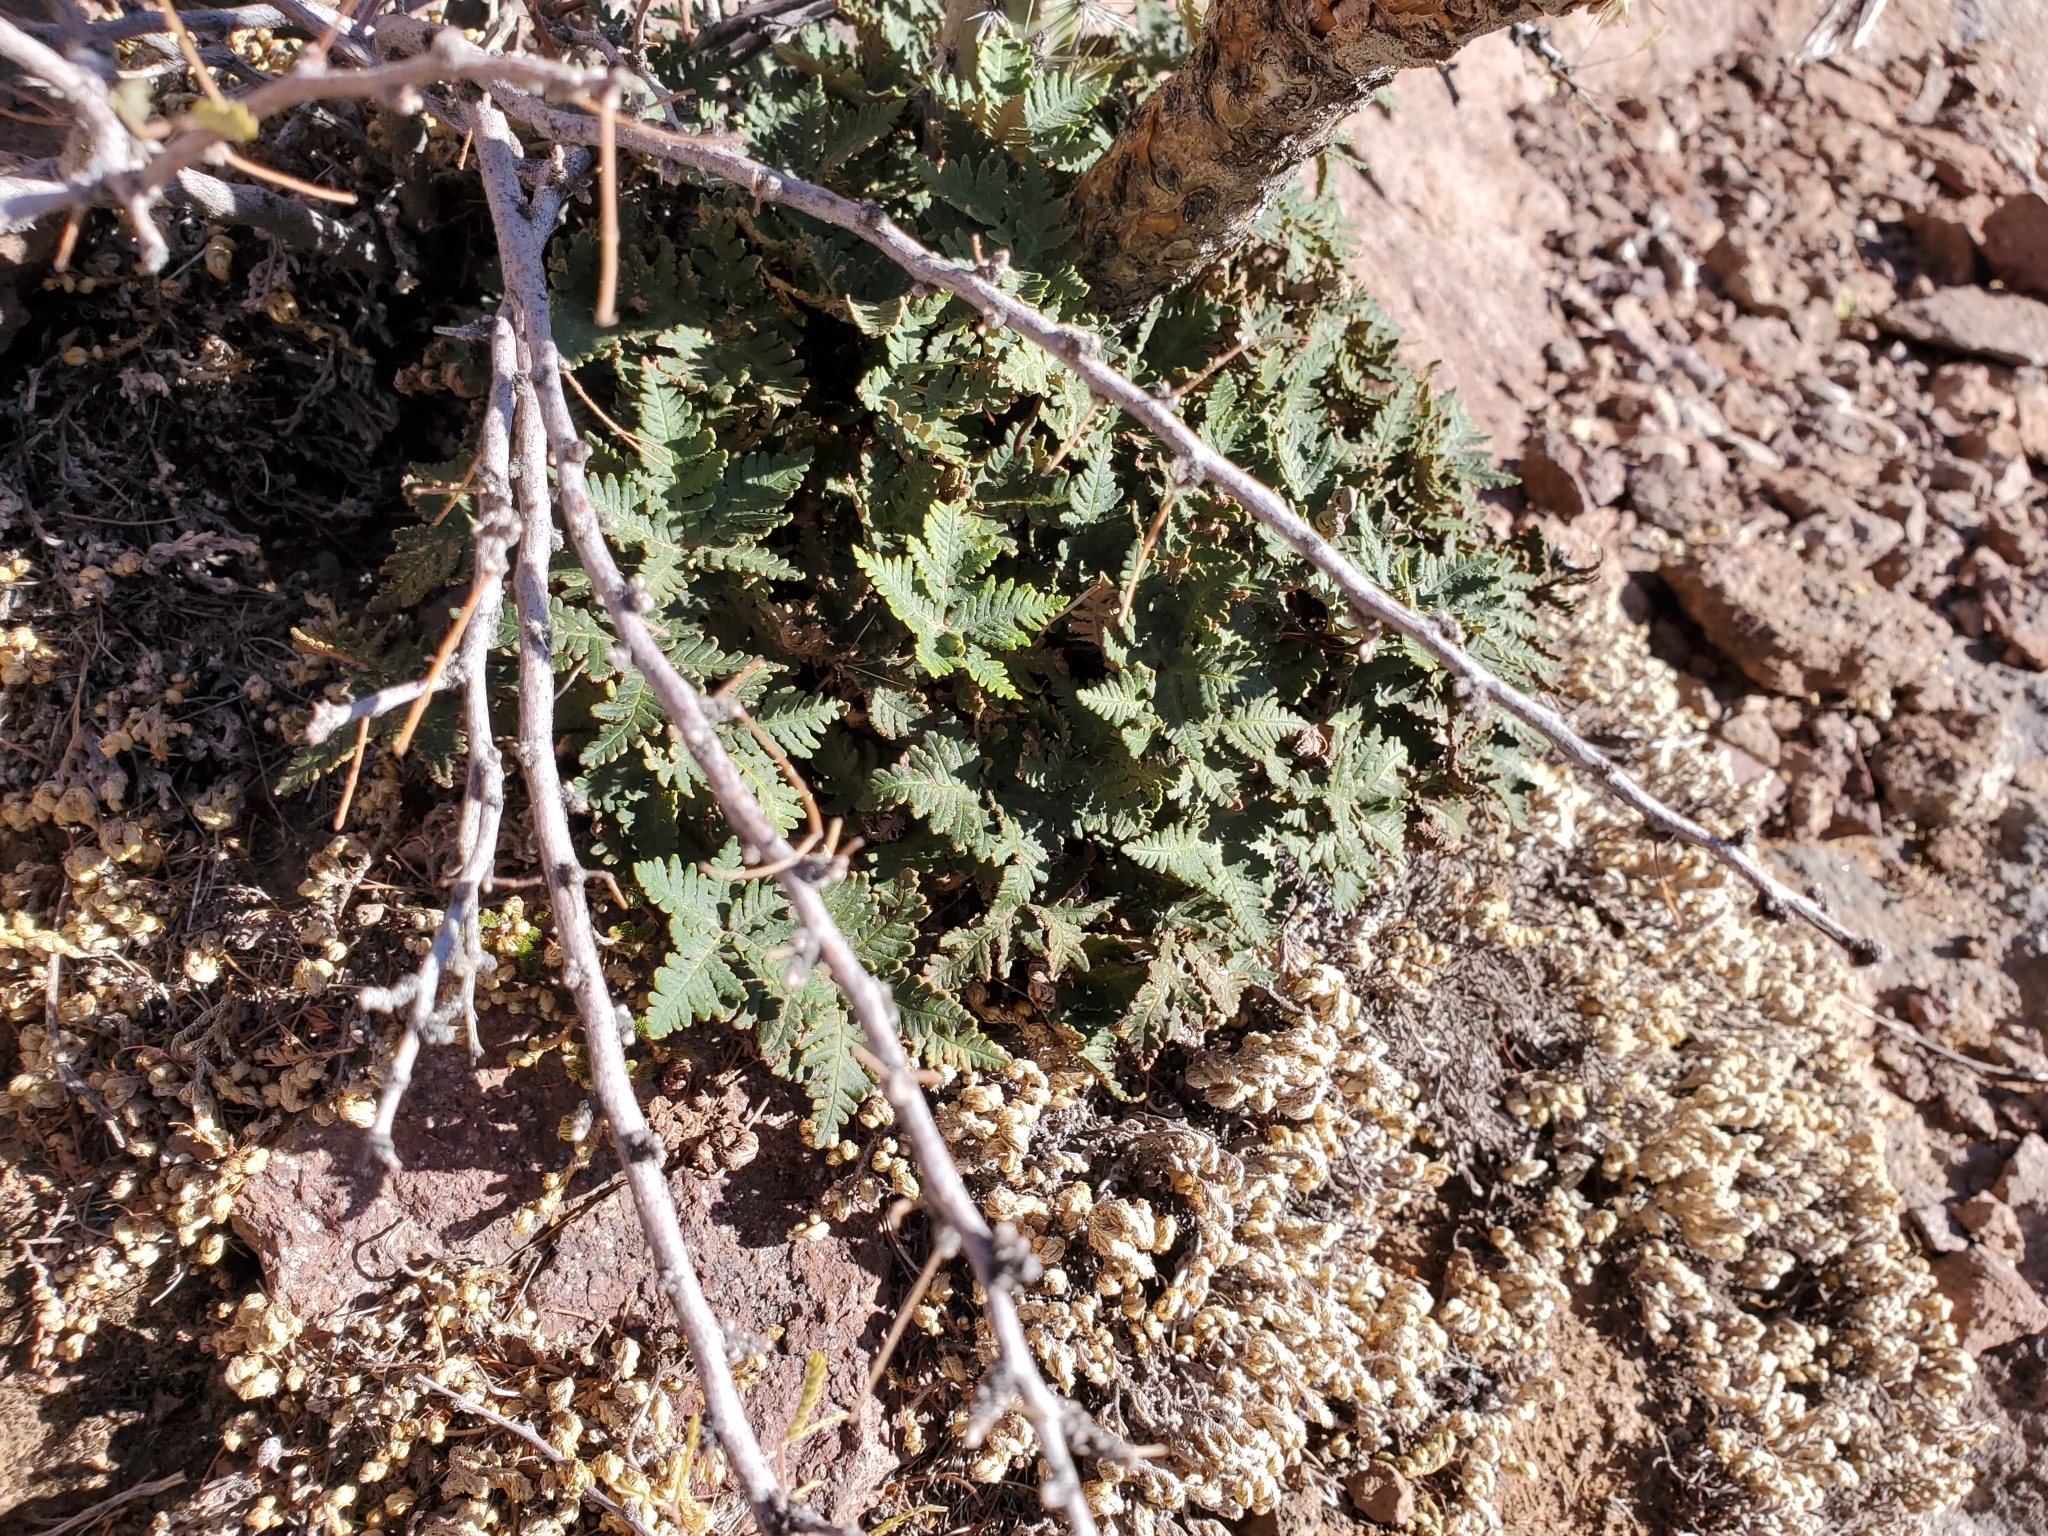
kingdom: Plantae
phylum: Tracheophyta
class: Polypodiopsida
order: Polypodiales
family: Pteridaceae
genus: Notholaena
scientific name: Notholaena standleyi
